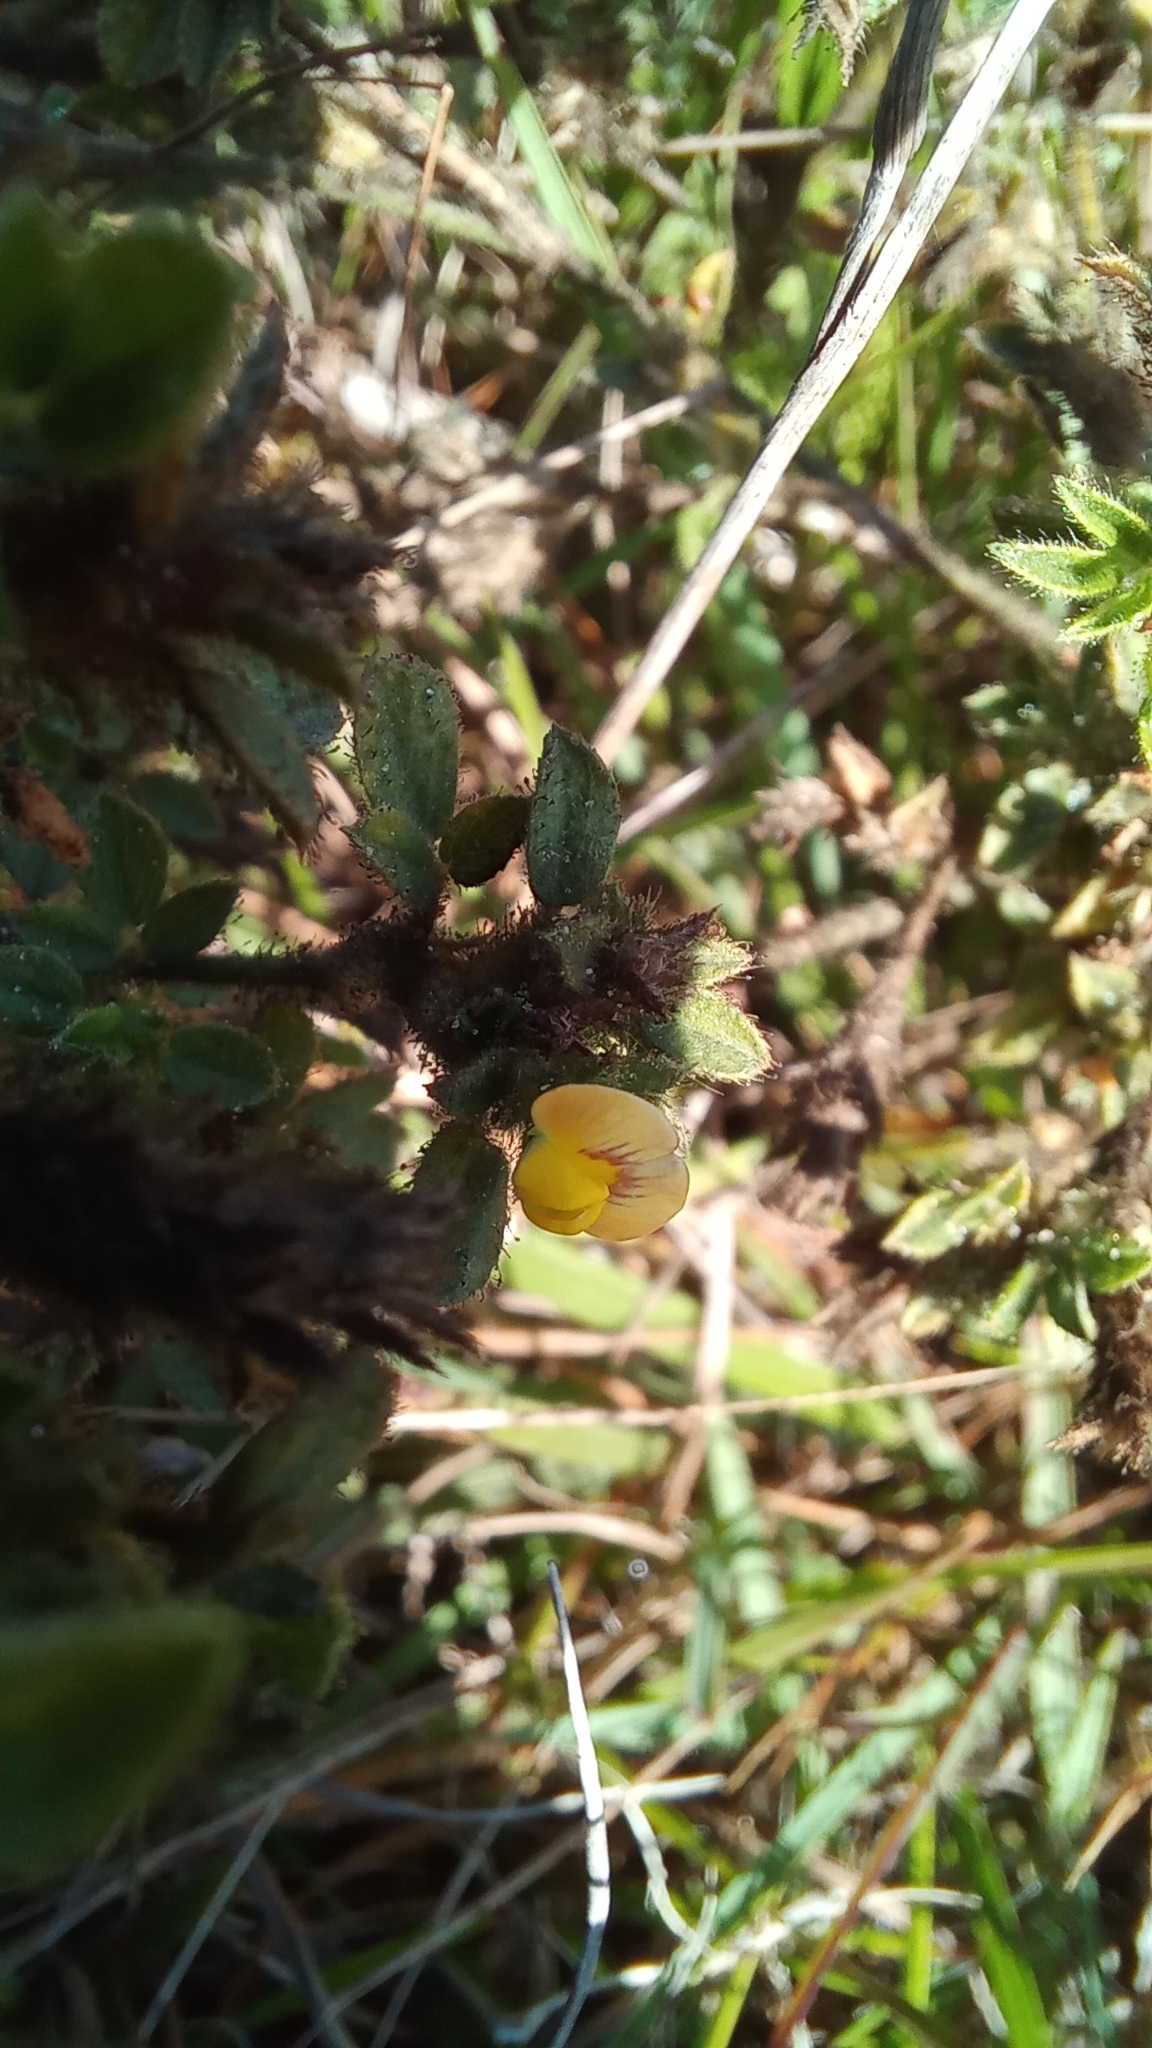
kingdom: Plantae
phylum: Tracheophyta
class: Magnoliopsida
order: Fabales
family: Fabaceae
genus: Stylosanthes
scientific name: Stylosanthes viscosa
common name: Viscid pencil-flower
